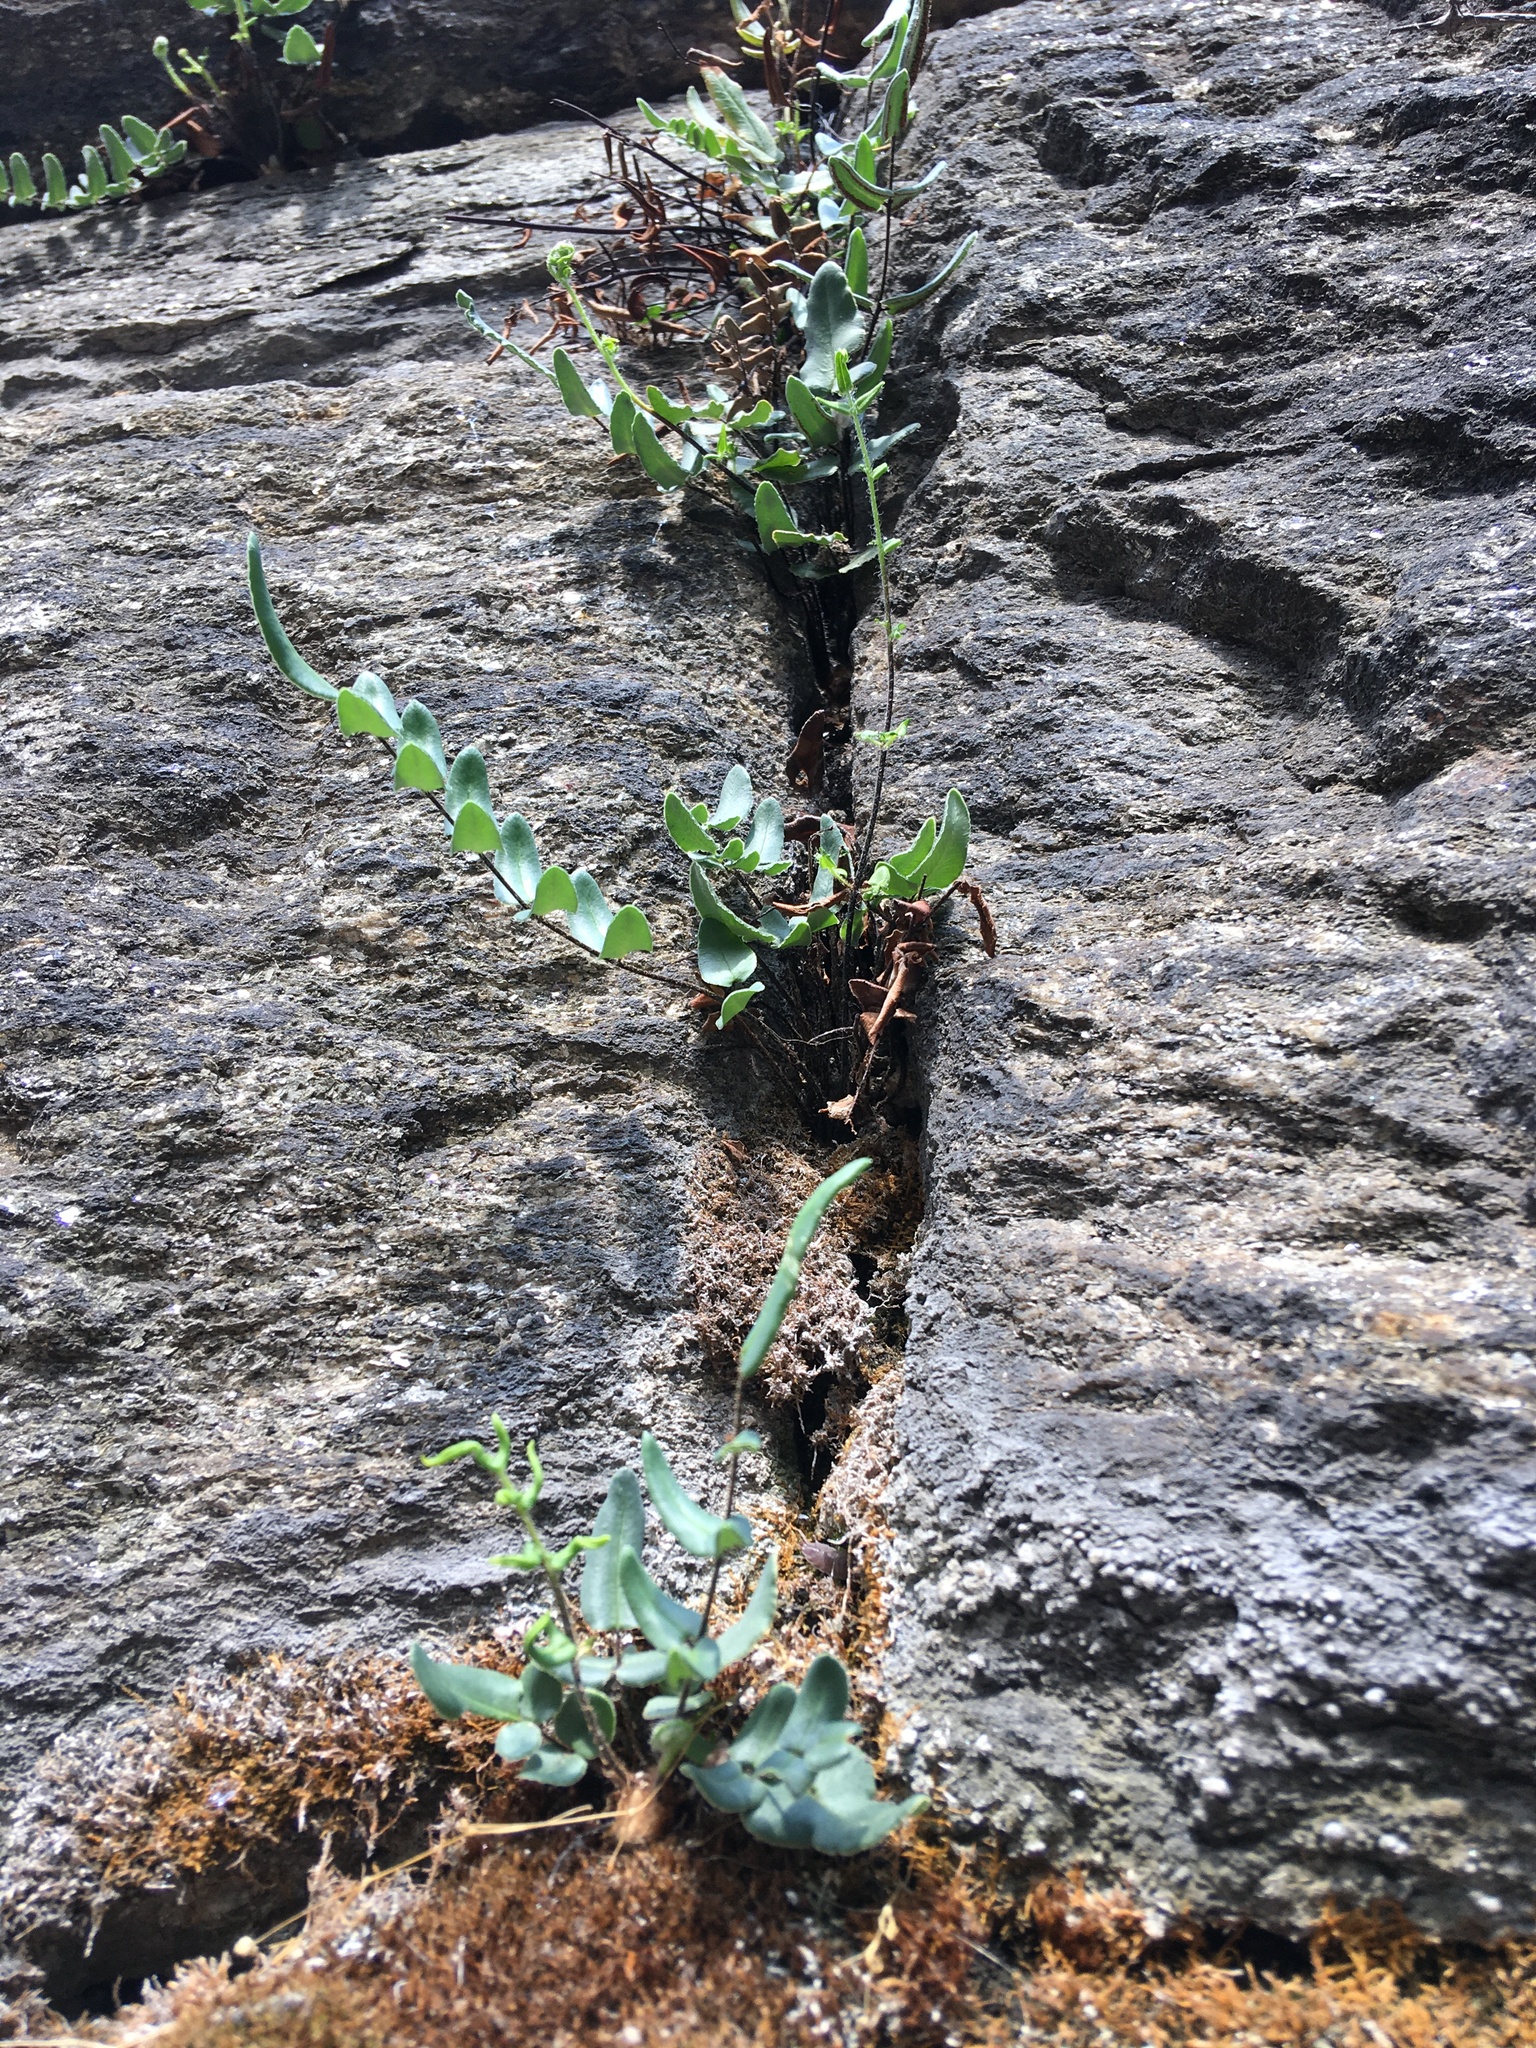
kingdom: Plantae
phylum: Tracheophyta
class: Polypodiopsida
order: Polypodiales
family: Pteridaceae
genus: Pellaea
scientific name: Pellaea atropurpurea
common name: Hairy cliffbrake
